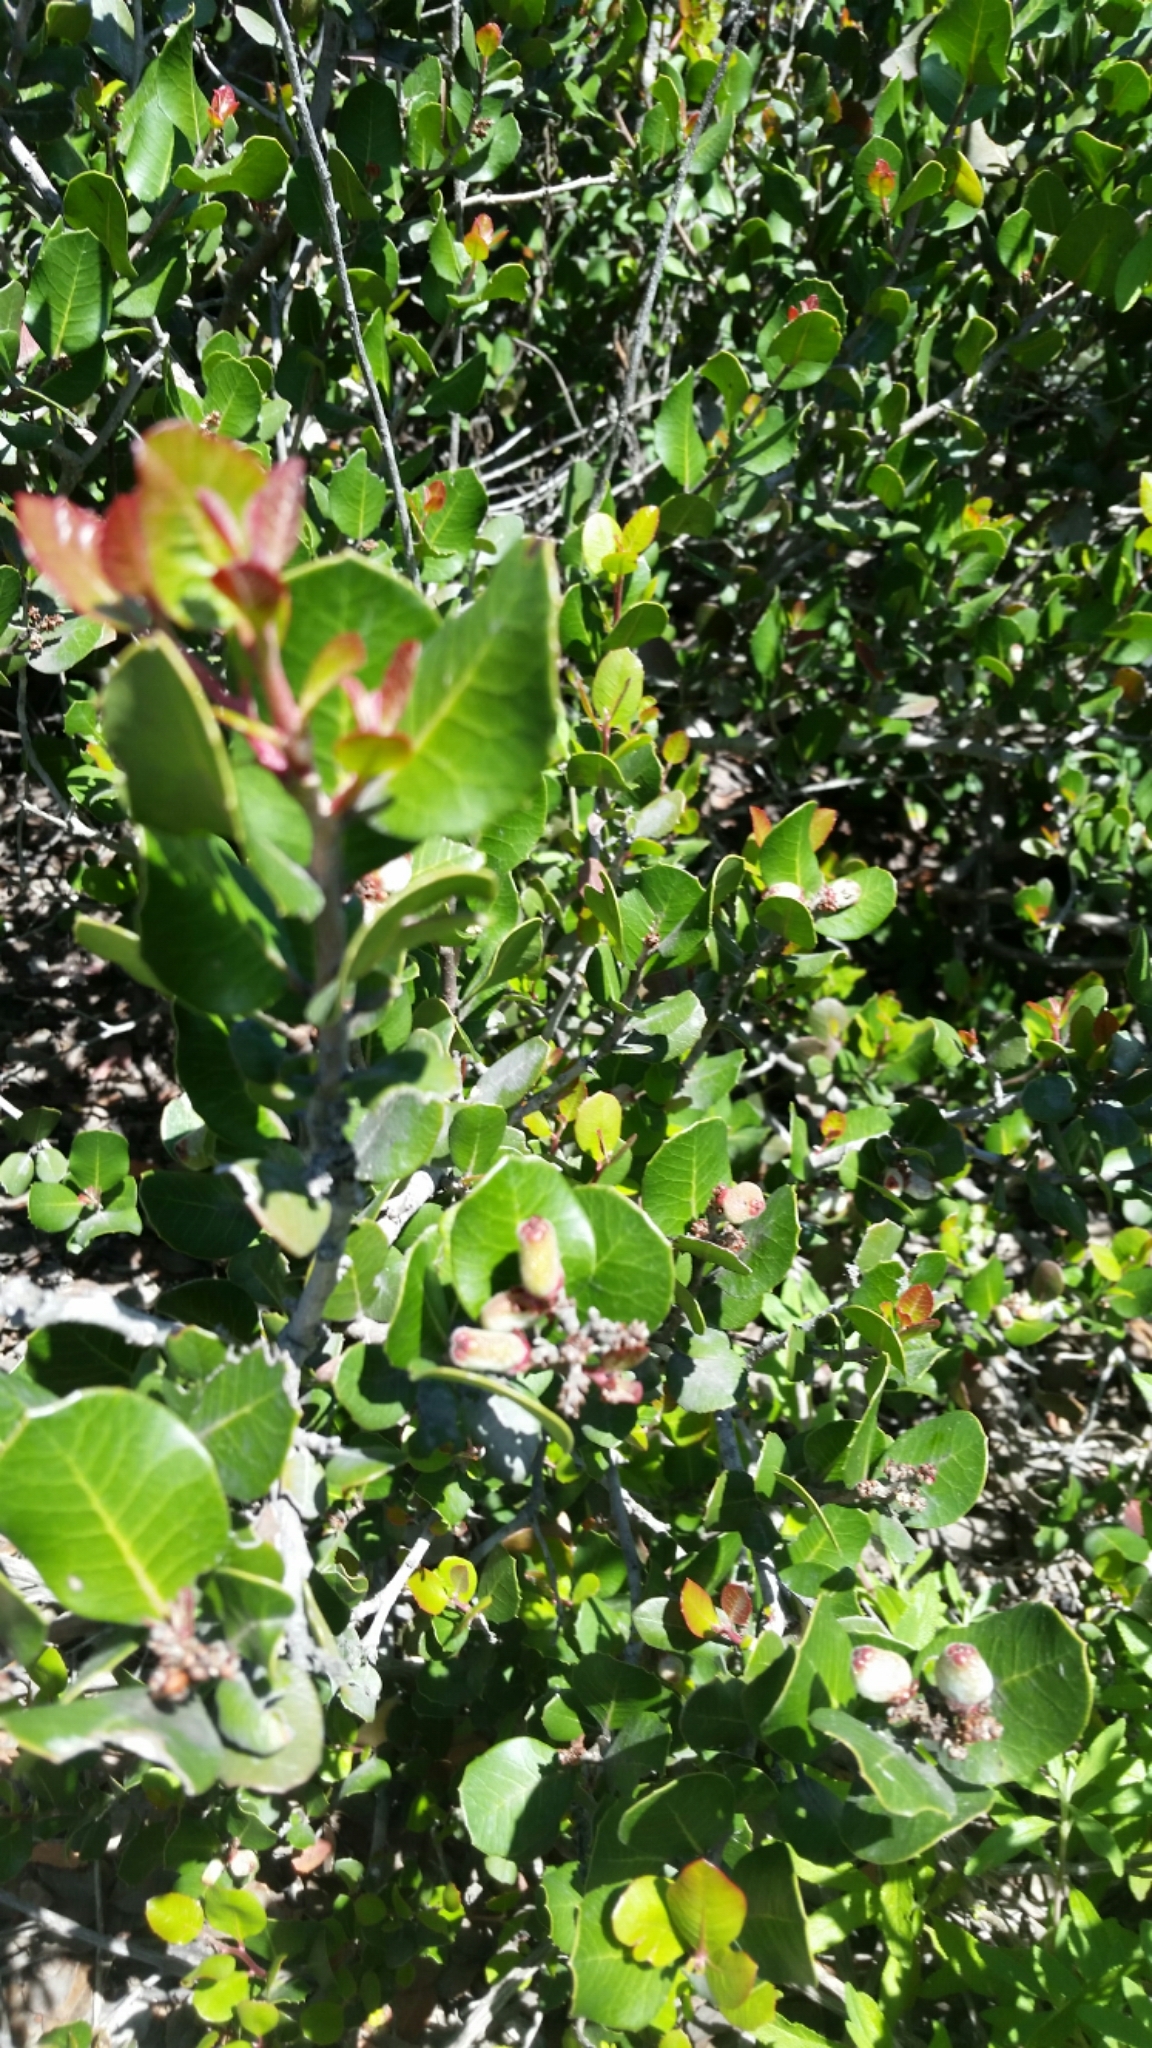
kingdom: Plantae
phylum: Tracheophyta
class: Magnoliopsida
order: Sapindales
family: Anacardiaceae
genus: Rhus
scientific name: Rhus integrifolia
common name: Lemonade sumac
